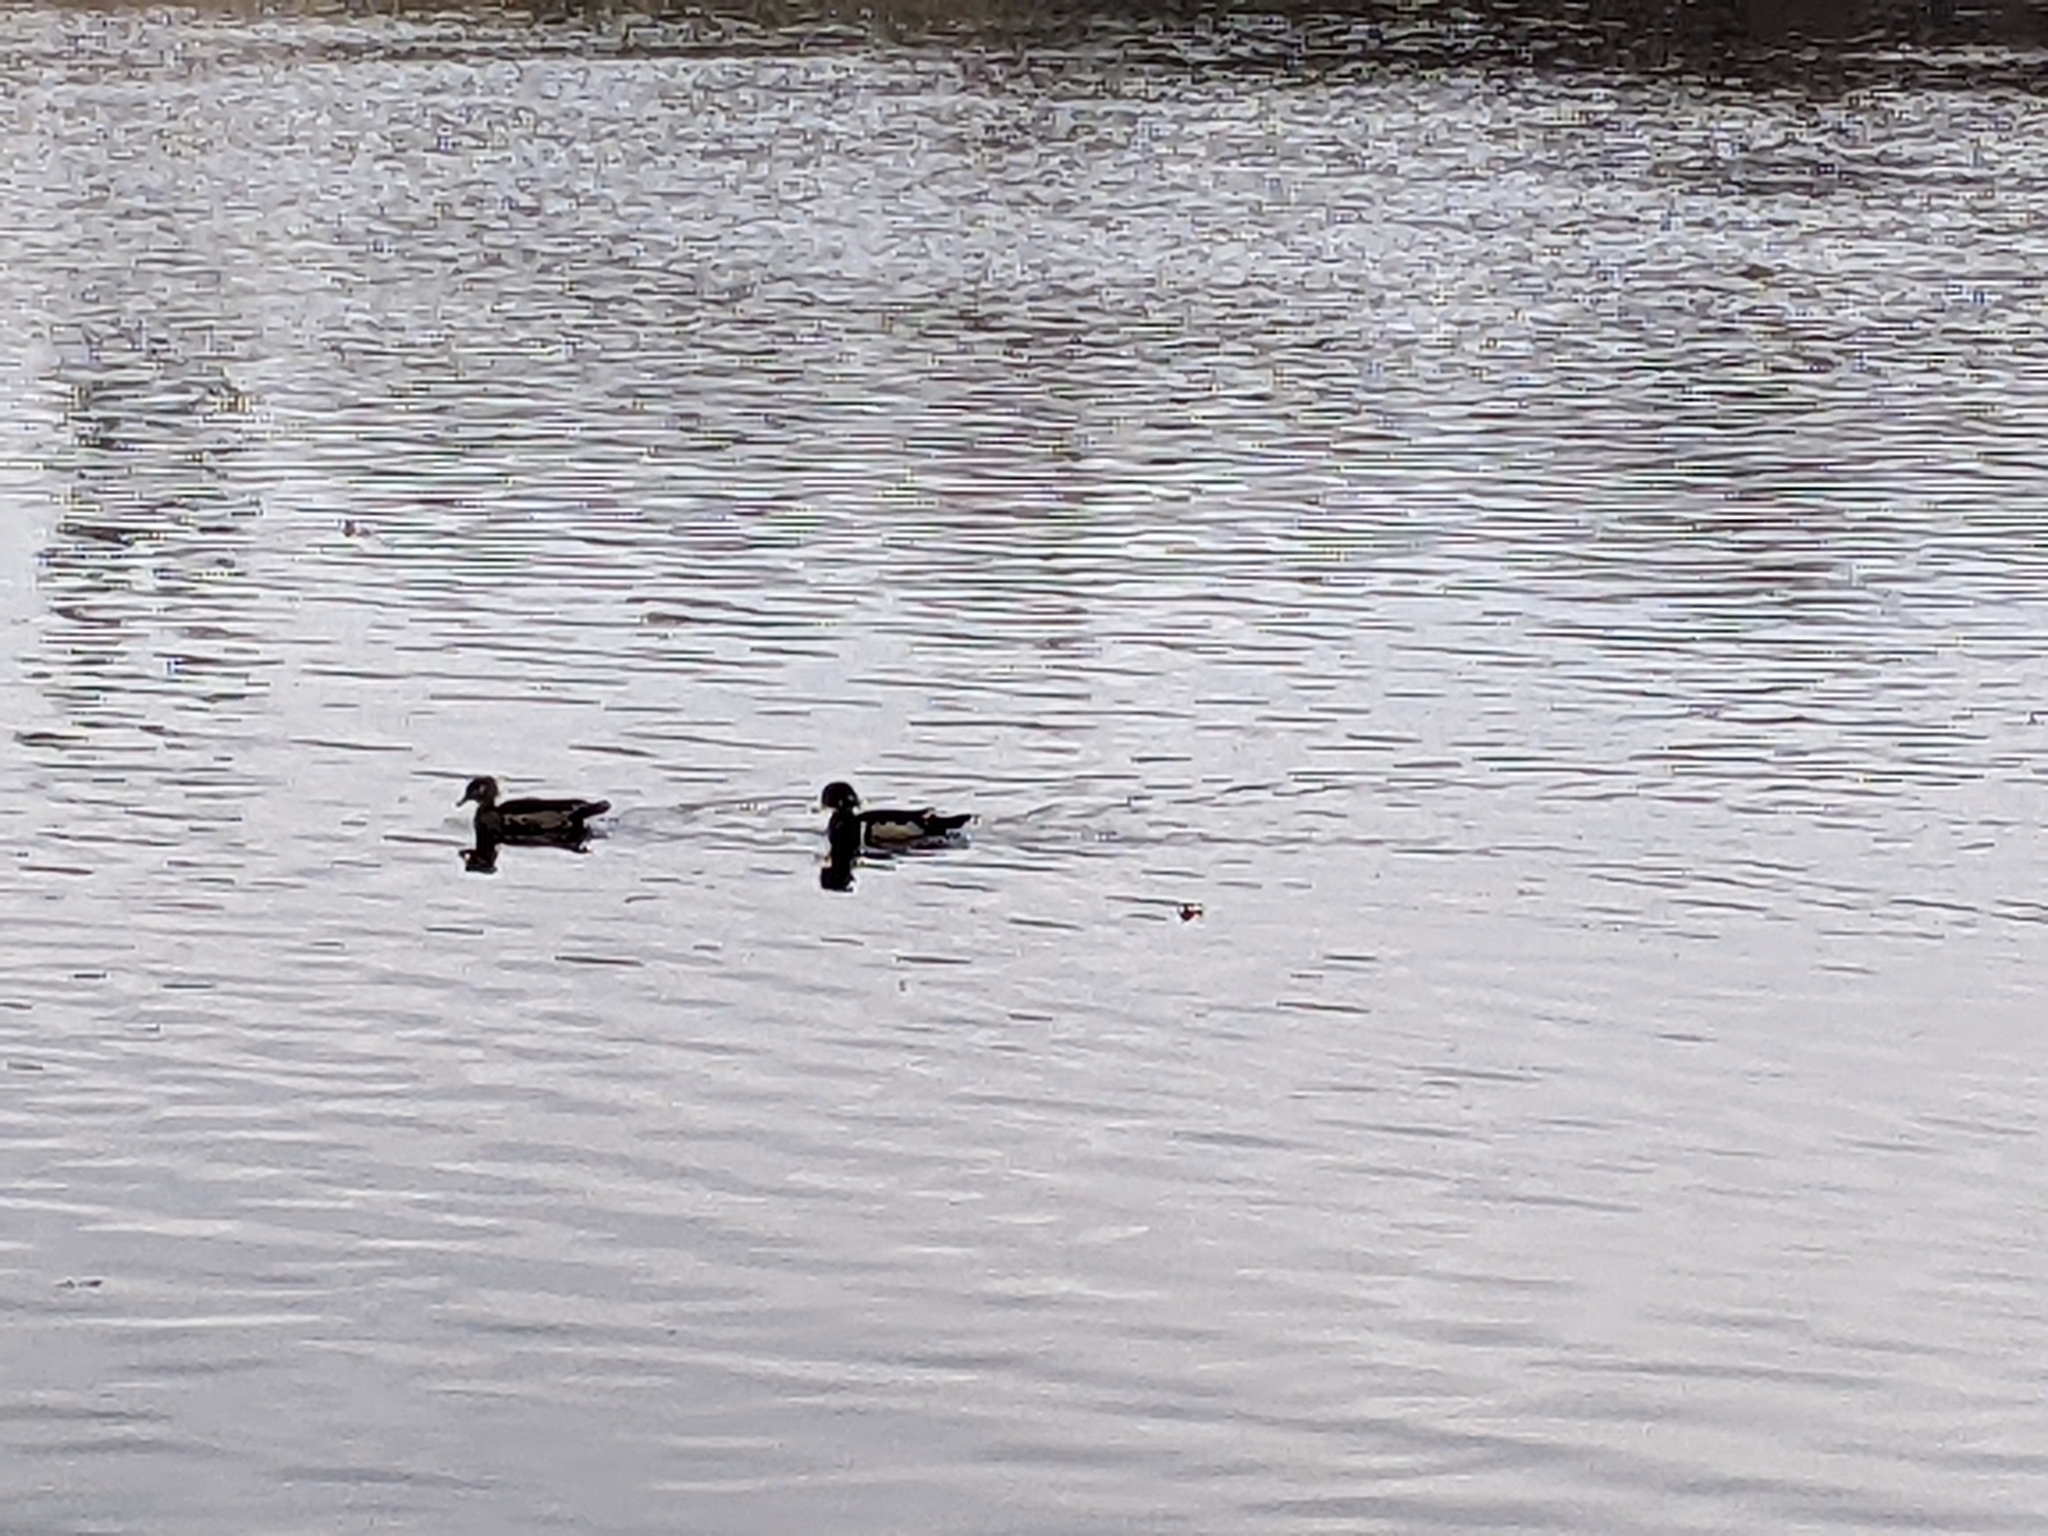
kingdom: Animalia
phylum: Chordata
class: Aves
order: Anseriformes
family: Anatidae
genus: Aix
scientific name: Aix sponsa
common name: Wood duck
